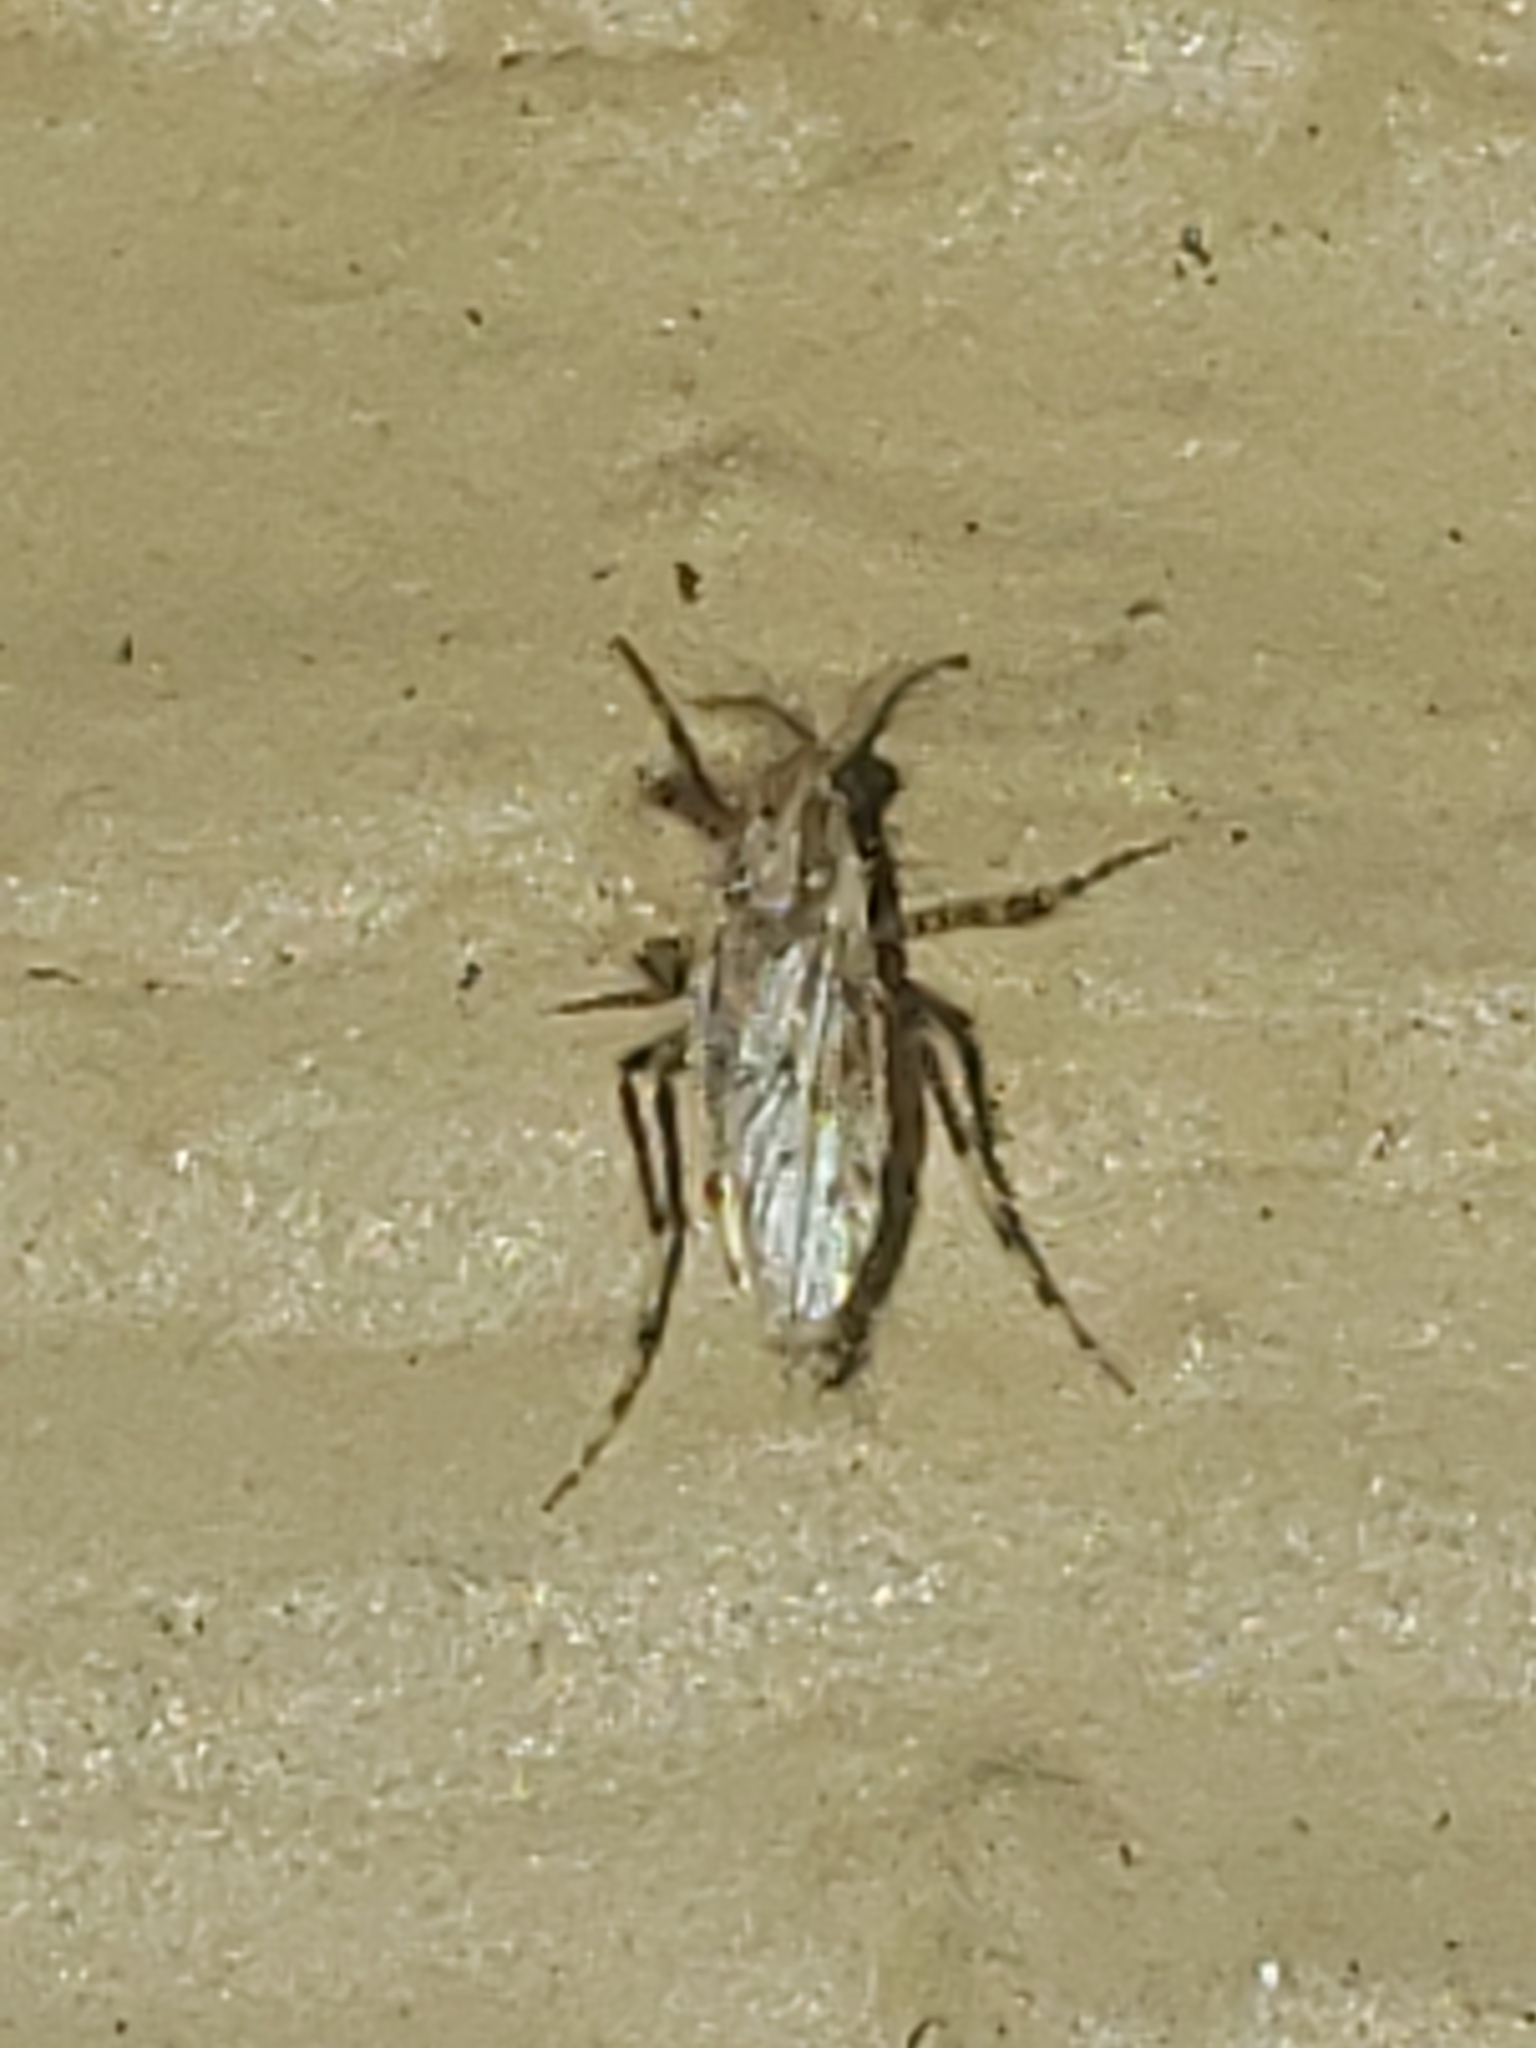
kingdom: Animalia
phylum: Arthropoda
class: Insecta
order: Diptera
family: Chaoboridae
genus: Chaoborus
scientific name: Chaoborus punctipennis
